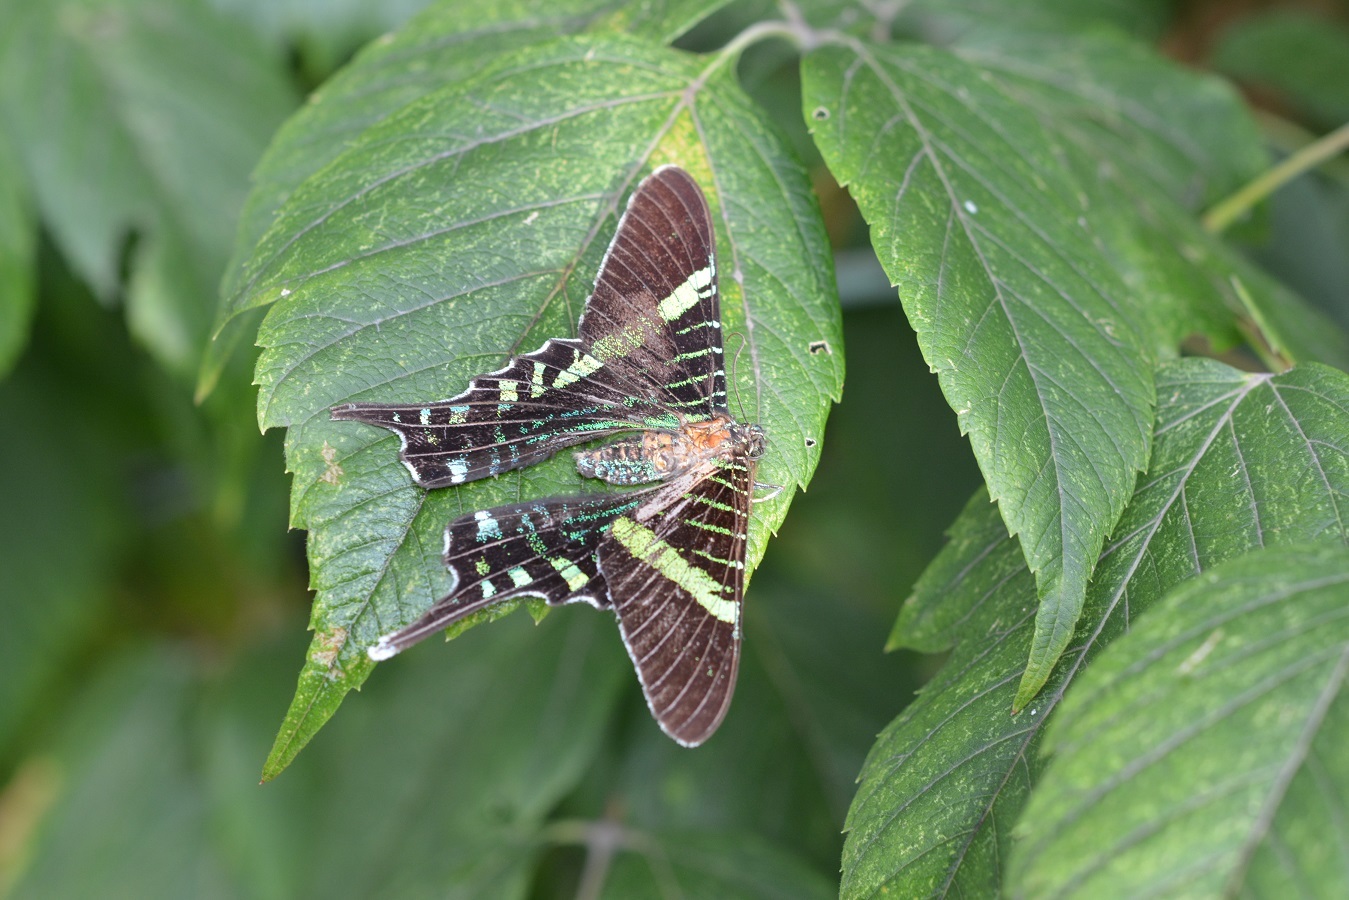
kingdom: Animalia
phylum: Arthropoda
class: Insecta
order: Lepidoptera
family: Uraniidae
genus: Urania
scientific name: Urania fulgens
